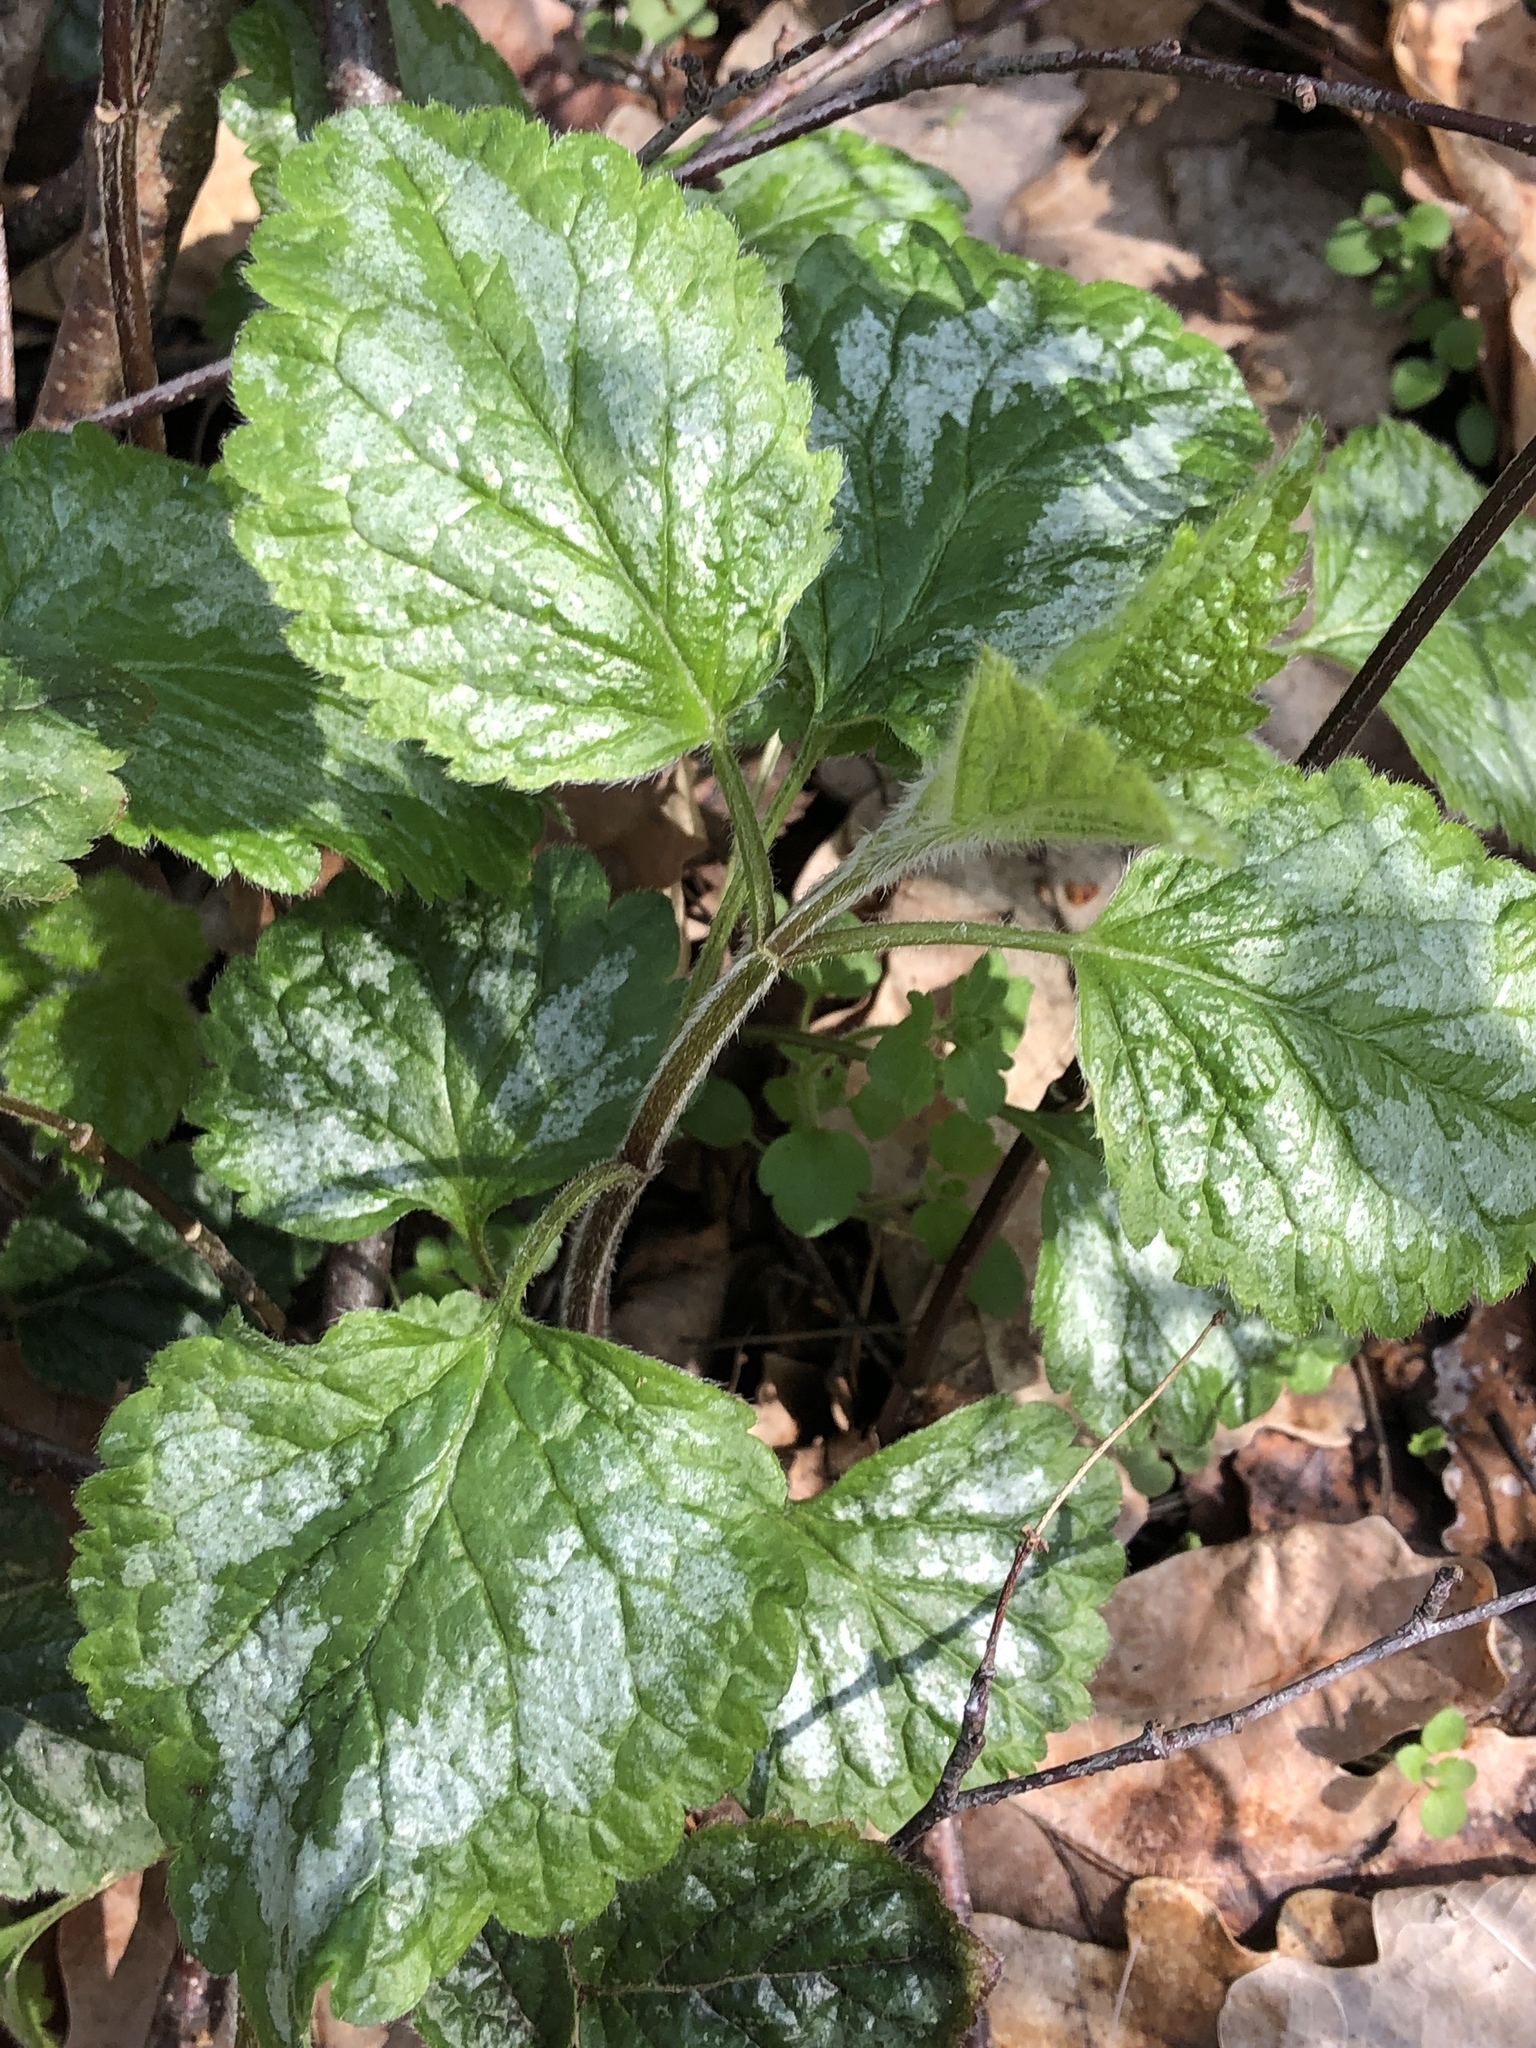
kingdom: Plantae
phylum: Tracheophyta
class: Magnoliopsida
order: Lamiales
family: Lamiaceae
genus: Lamium
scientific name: Lamium galeobdolon
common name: Yellow archangel
